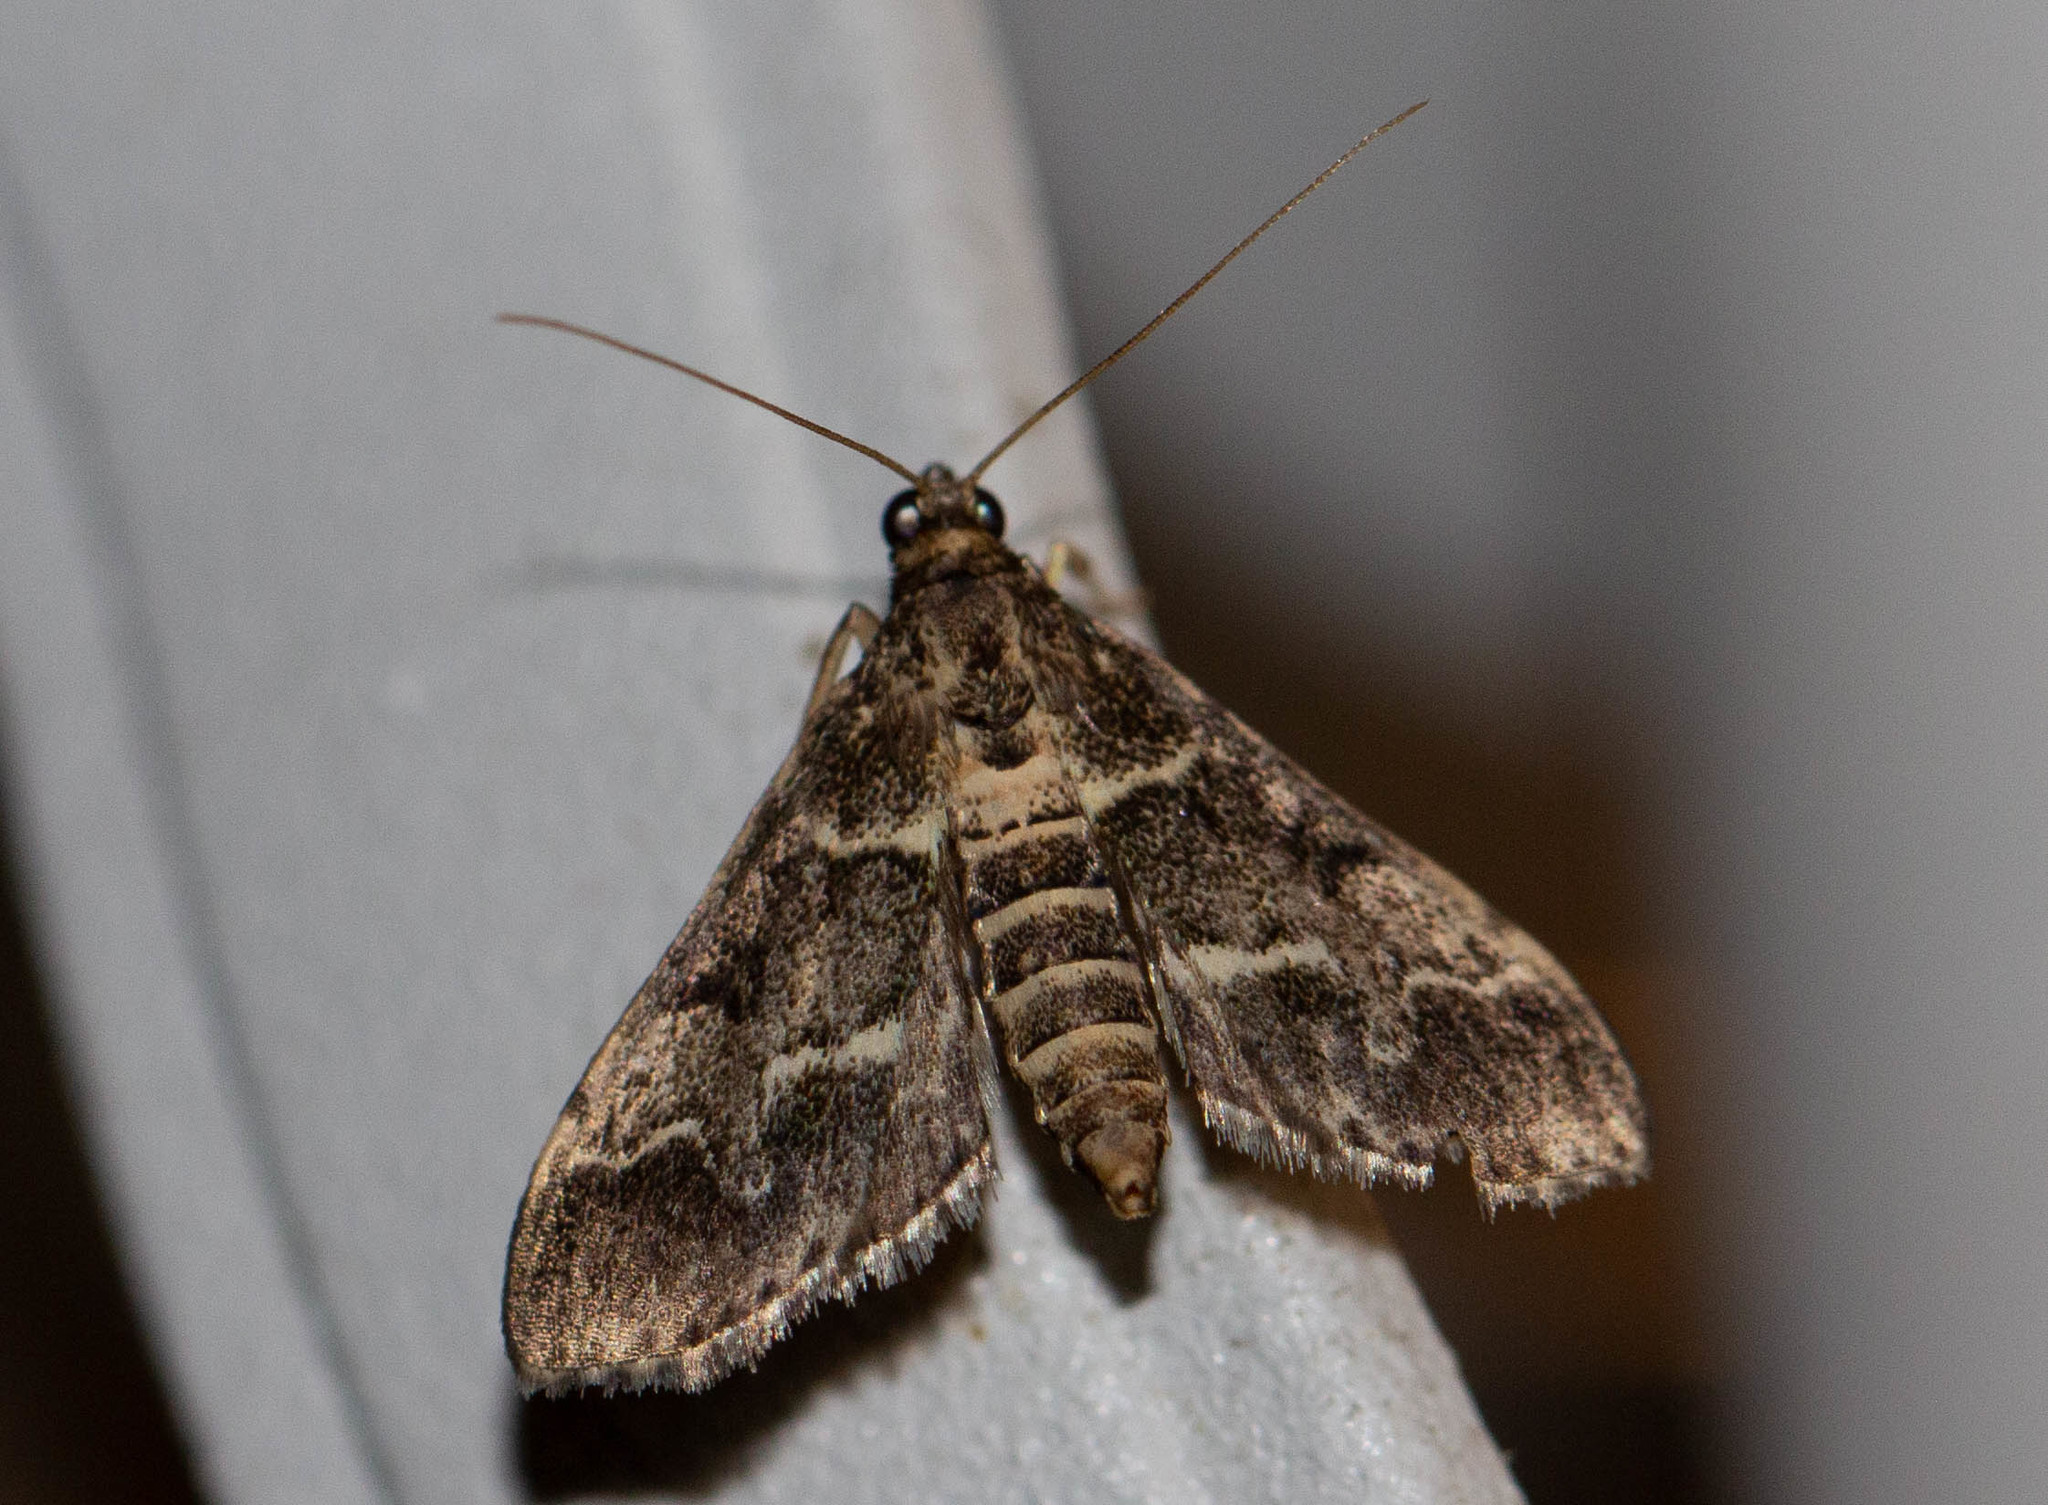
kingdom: Animalia
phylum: Arthropoda
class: Insecta
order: Lepidoptera
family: Crambidae
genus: Duponchelia
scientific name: Duponchelia fovealis
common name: Crambid moth
